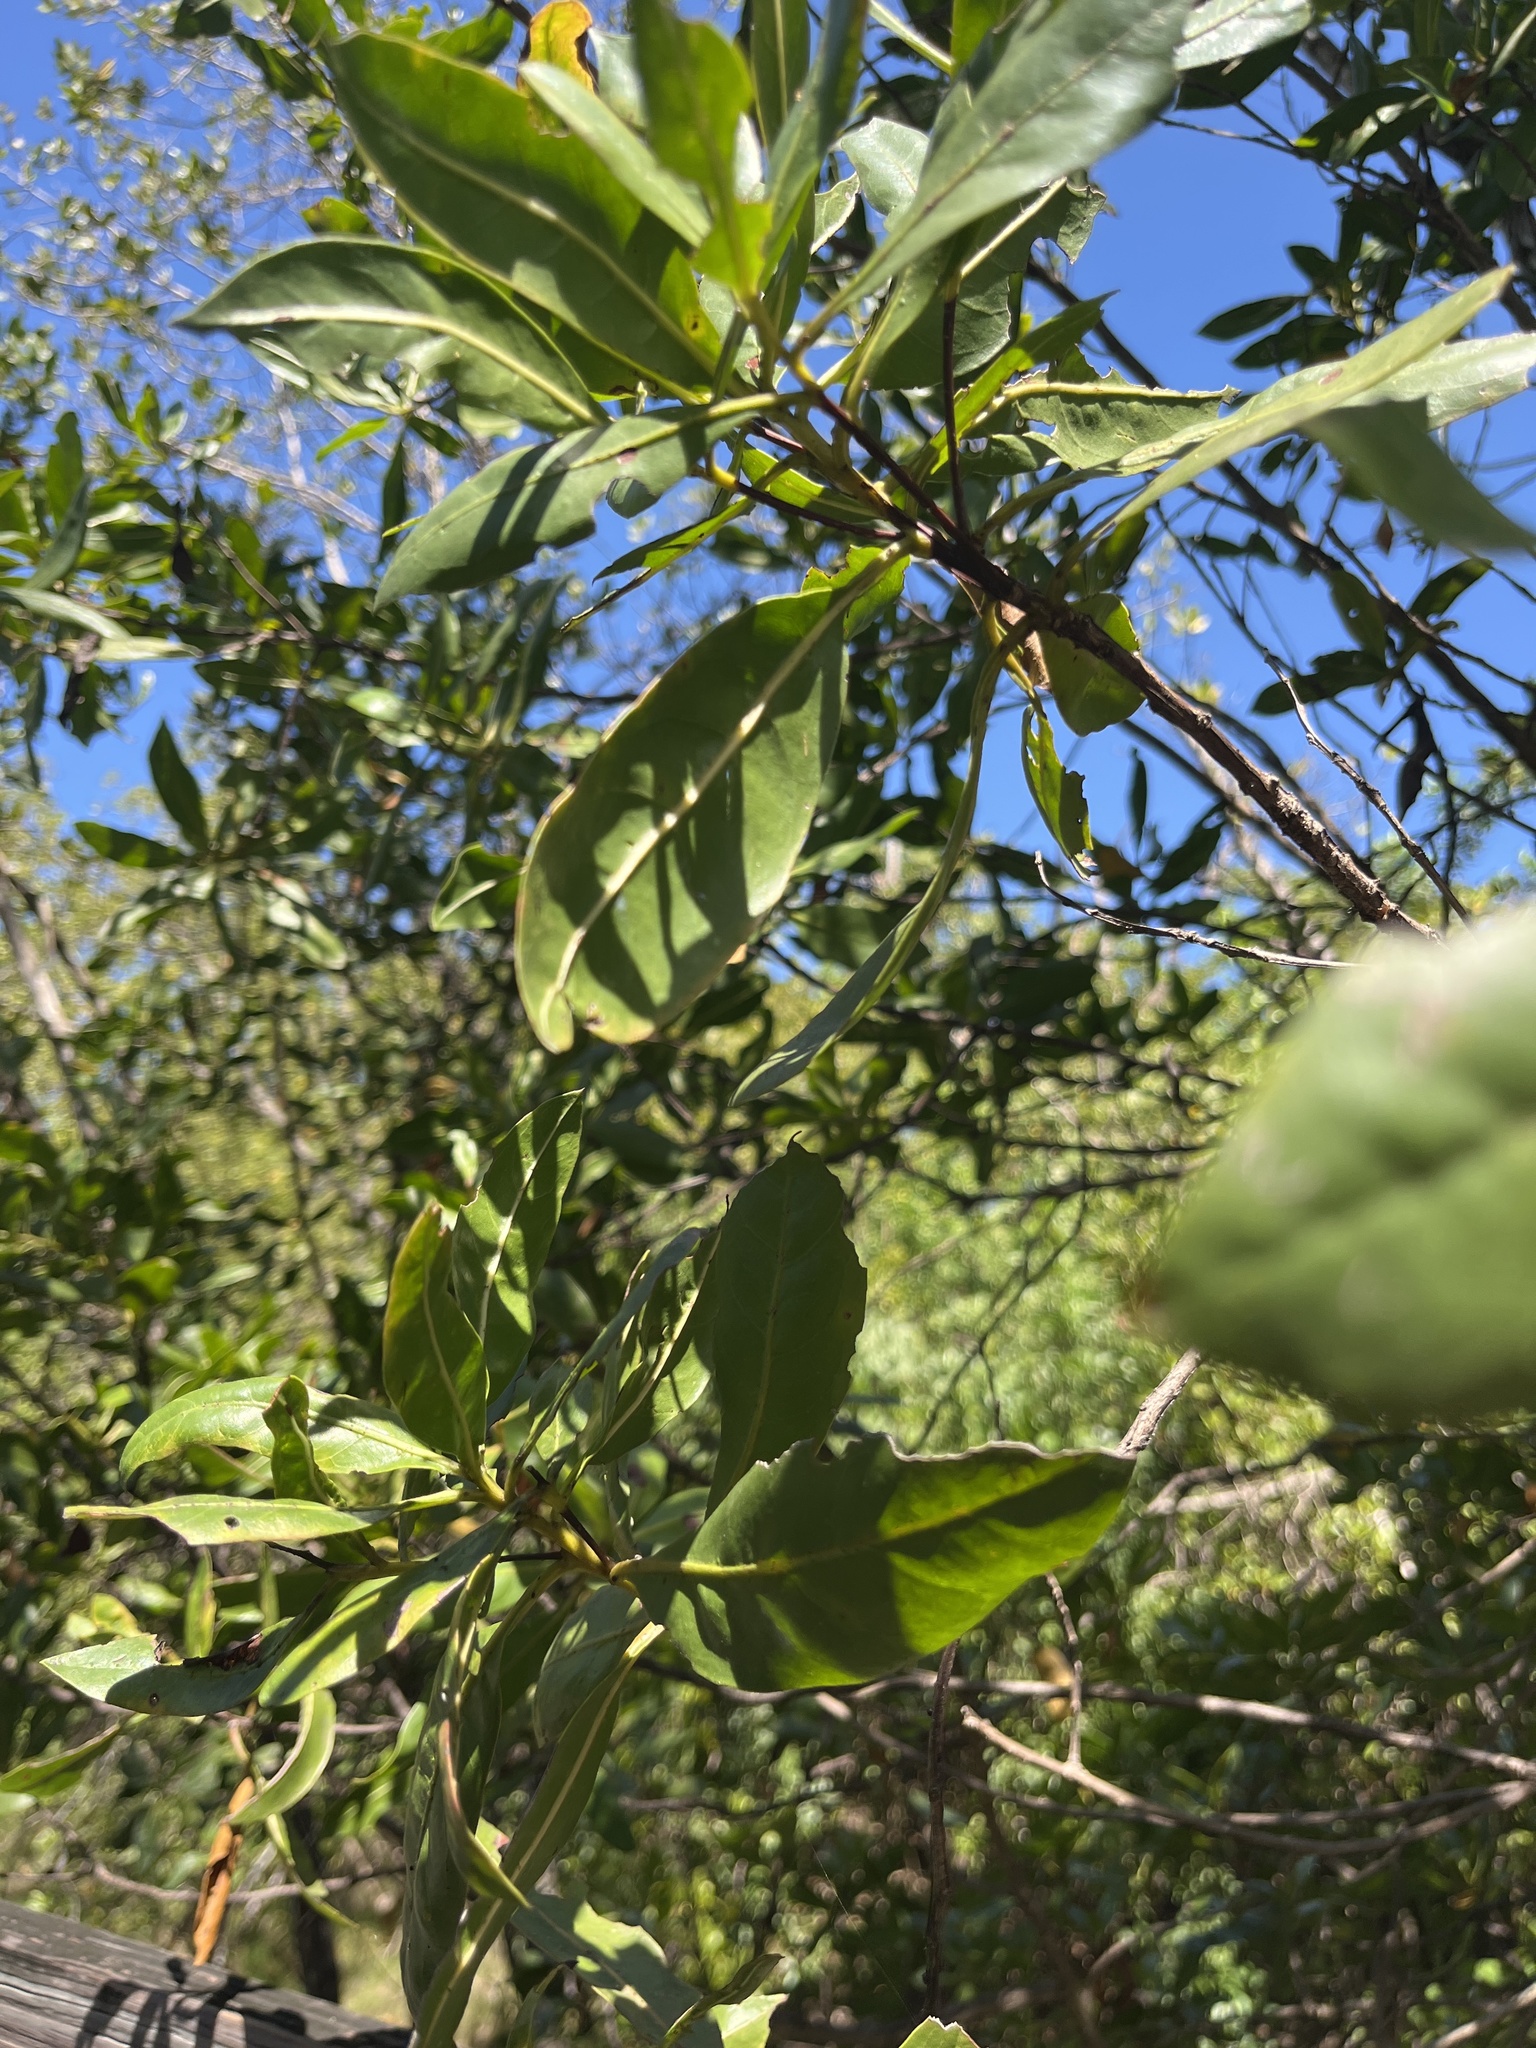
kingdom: Plantae
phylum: Tracheophyta
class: Magnoliopsida
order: Myrtales
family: Combretaceae
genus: Conocarpus
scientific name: Conocarpus erectus
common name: Button mangrove
